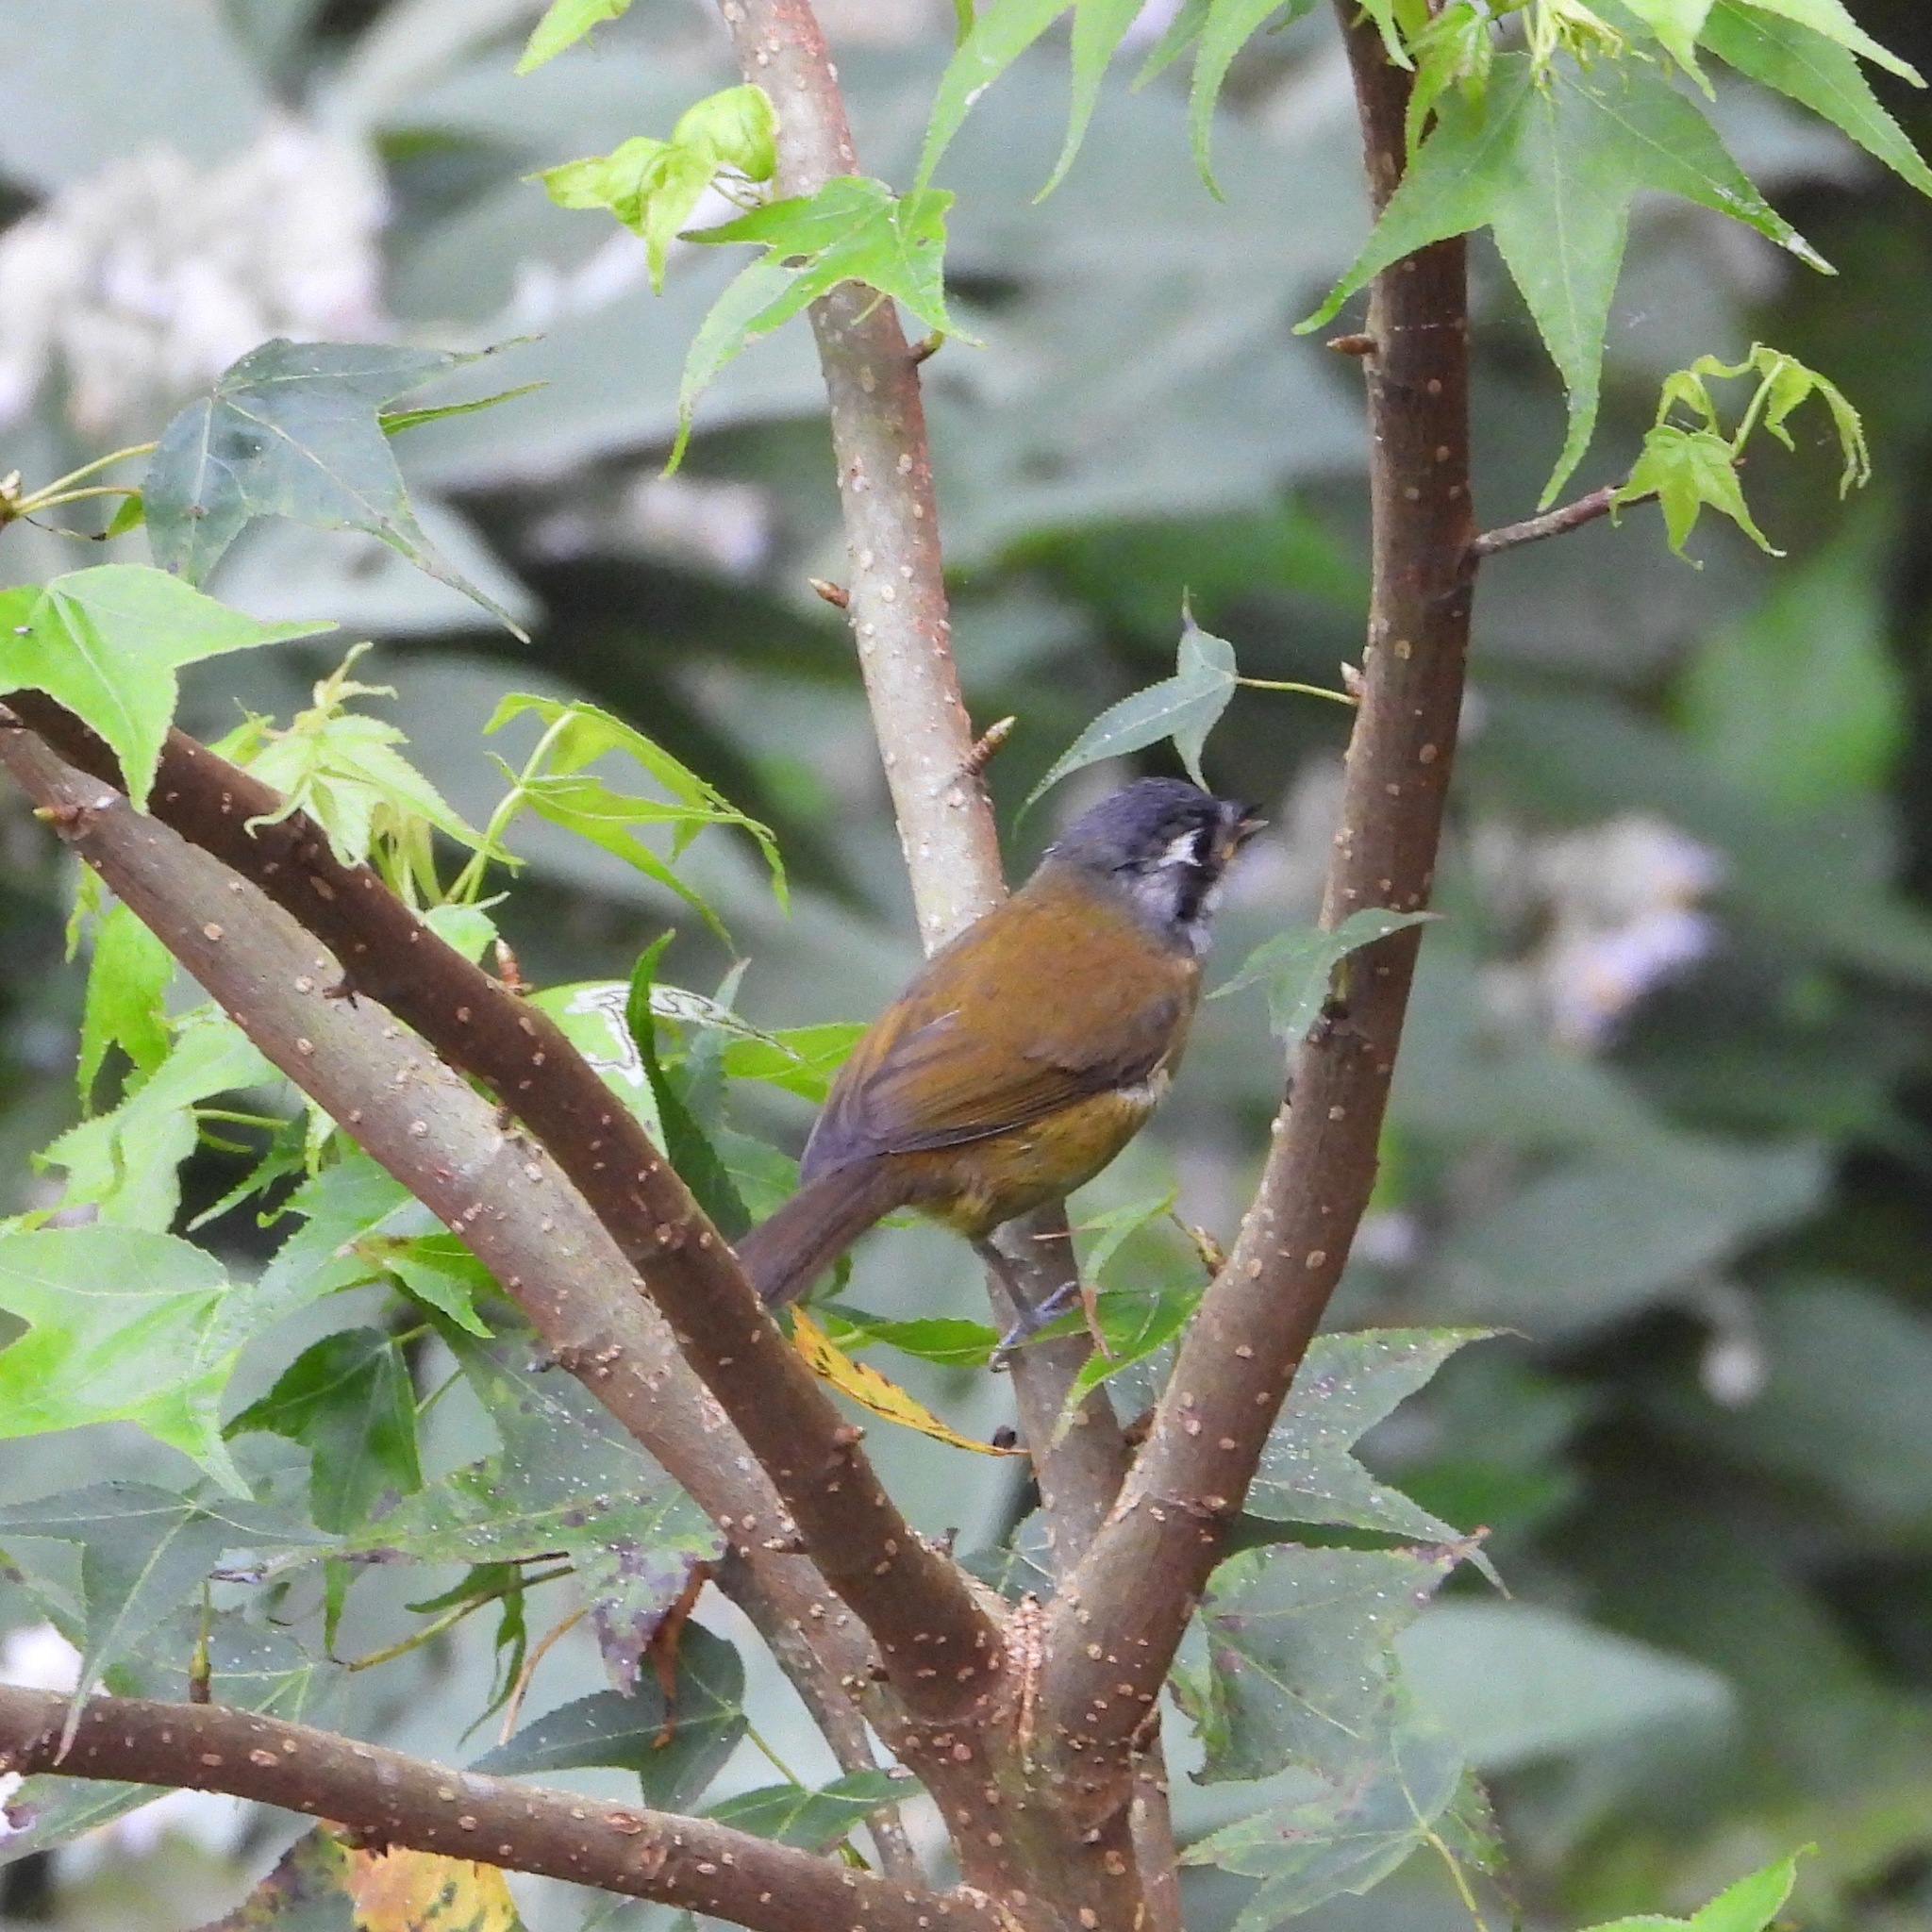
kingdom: Animalia
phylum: Chordata
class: Aves
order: Passeriformes
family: Passerellidae
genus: Chlorospingus
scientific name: Chlorospingus flavopectus
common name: Common chlorospingus
